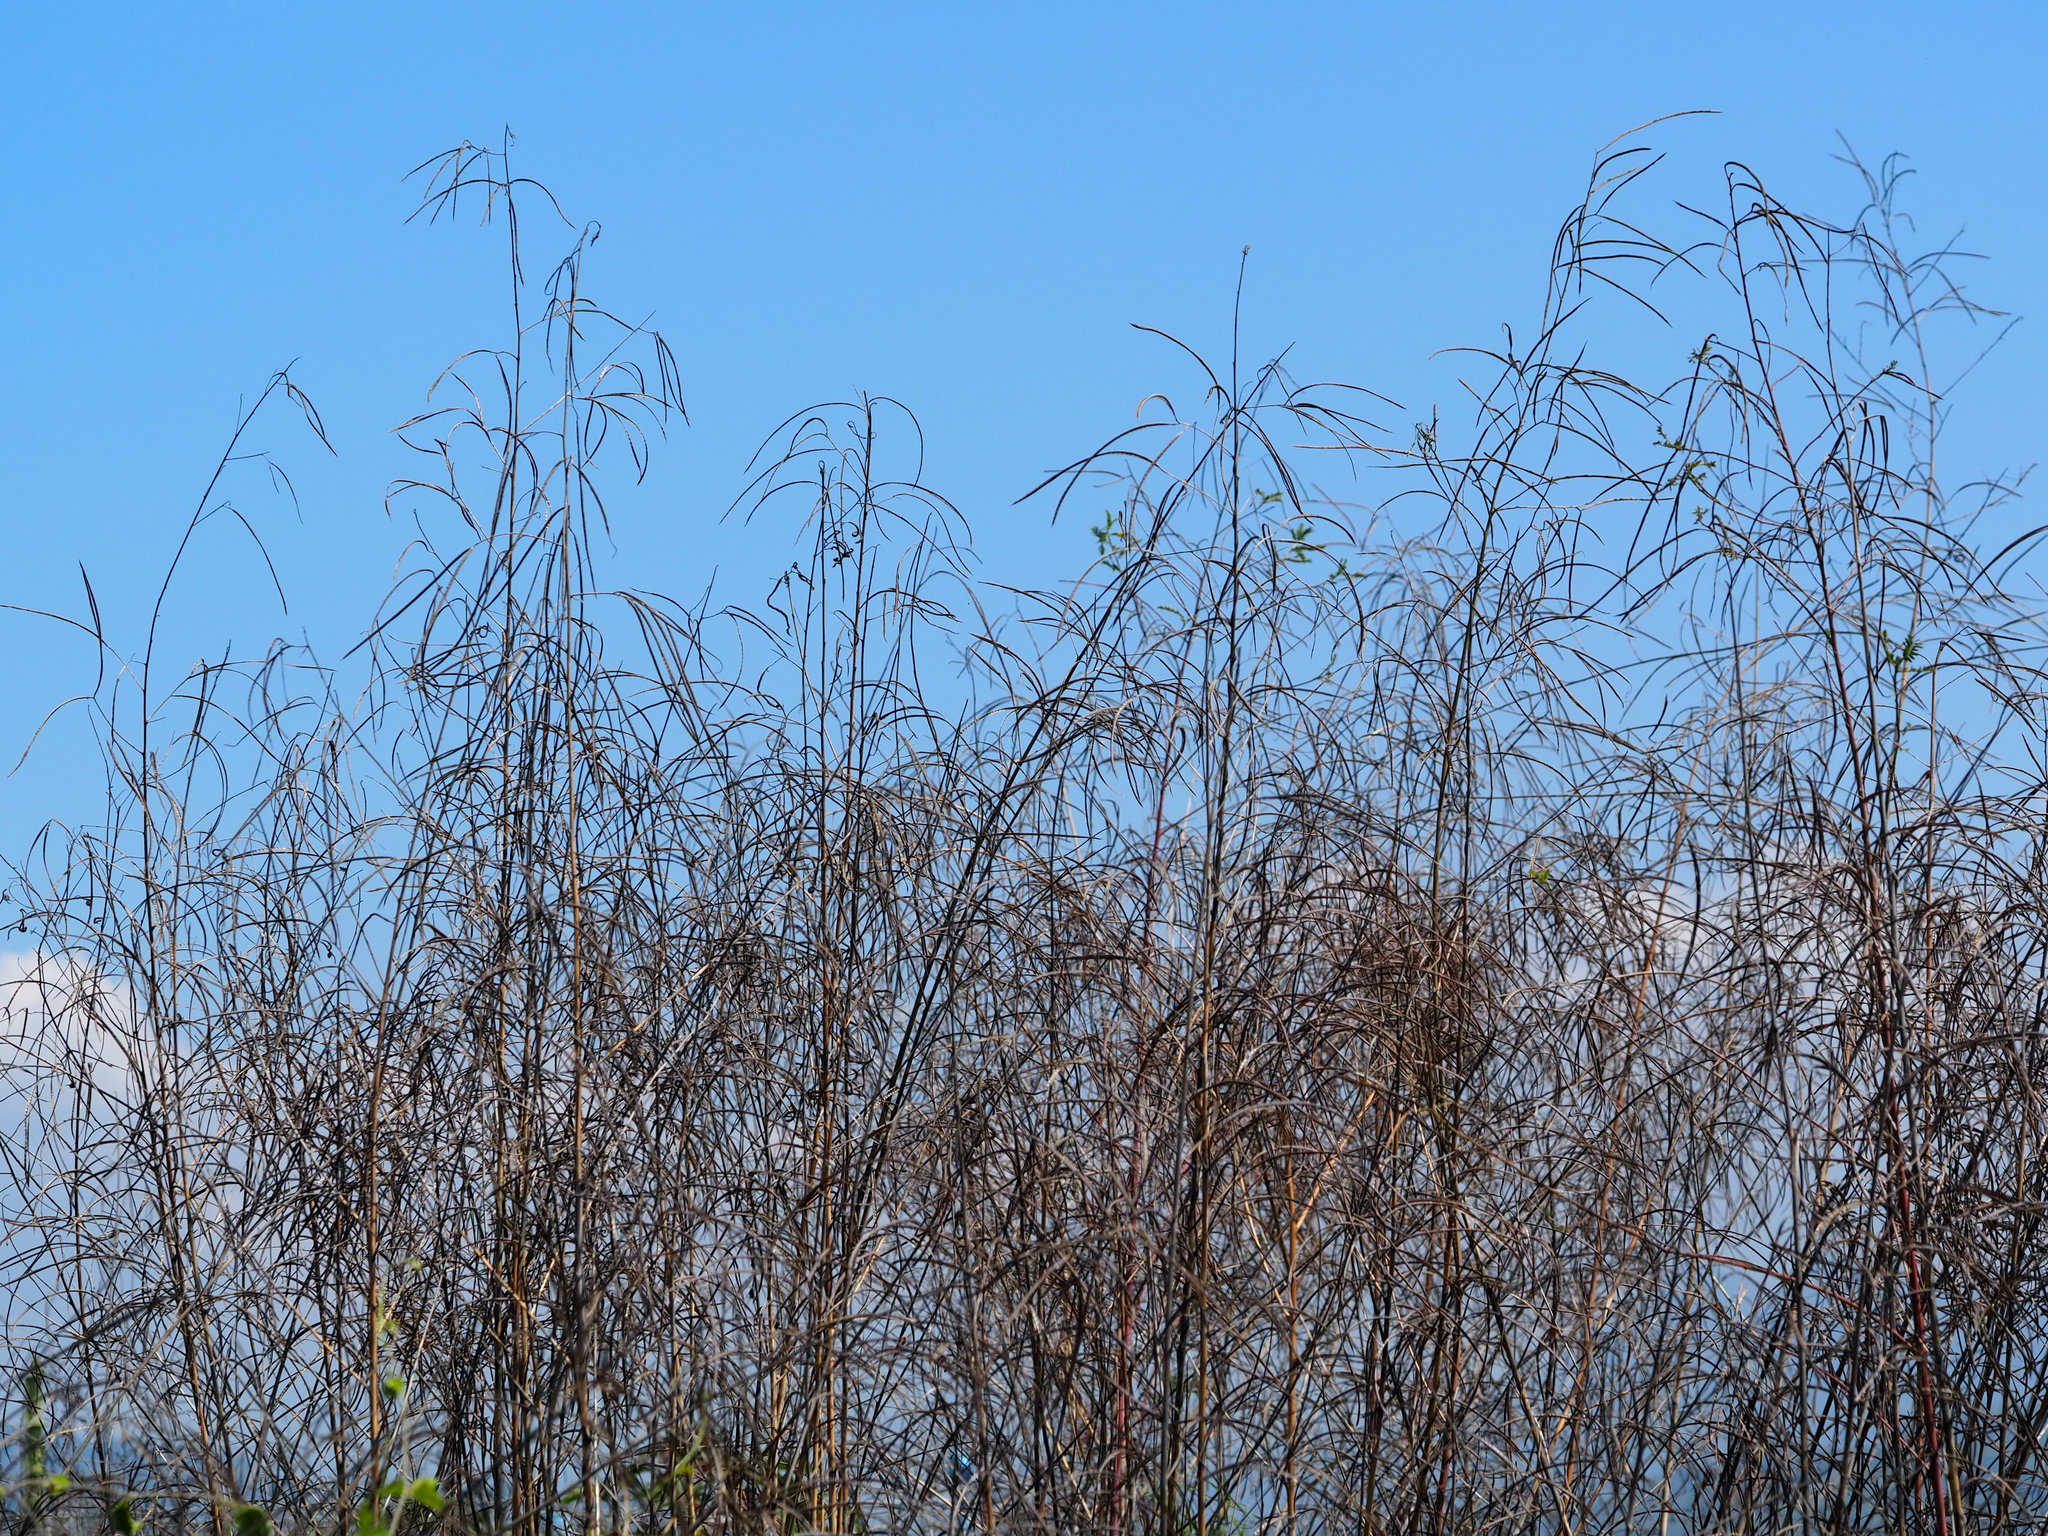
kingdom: Plantae
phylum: Tracheophyta
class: Magnoliopsida
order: Fabales
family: Fabaceae
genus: Sesbania
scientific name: Sesbania cannabina
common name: Canicha
